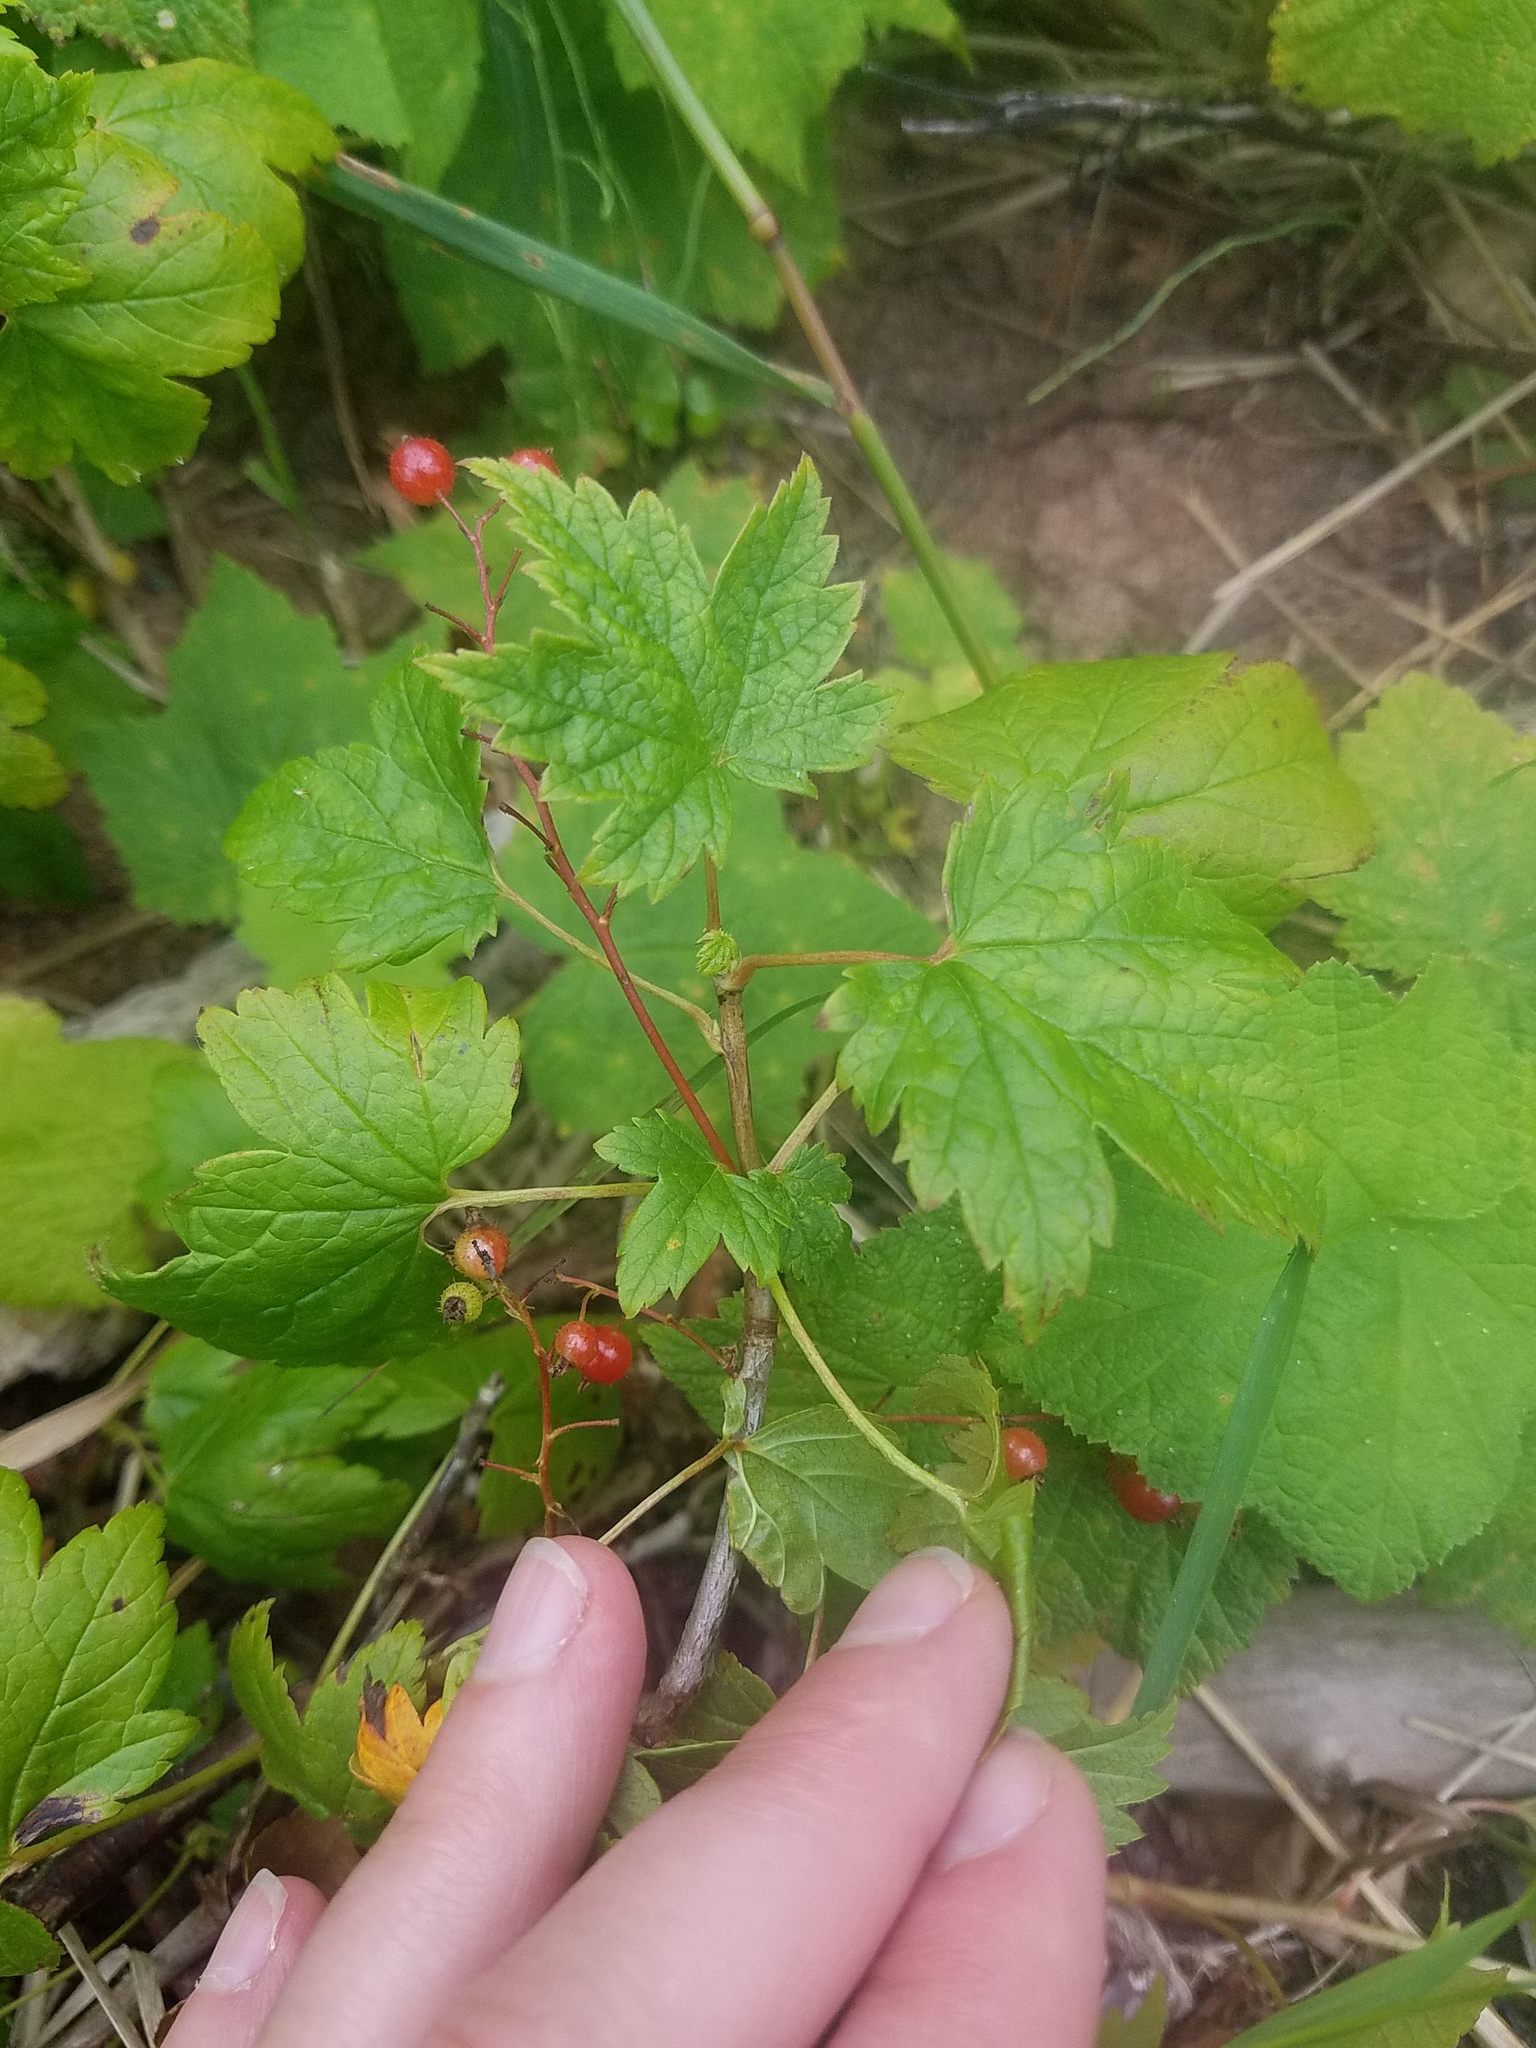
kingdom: Plantae
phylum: Tracheophyta
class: Magnoliopsida
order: Saxifragales
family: Grossulariaceae
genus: Ribes
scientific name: Ribes glandulosum
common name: Skunk currant
